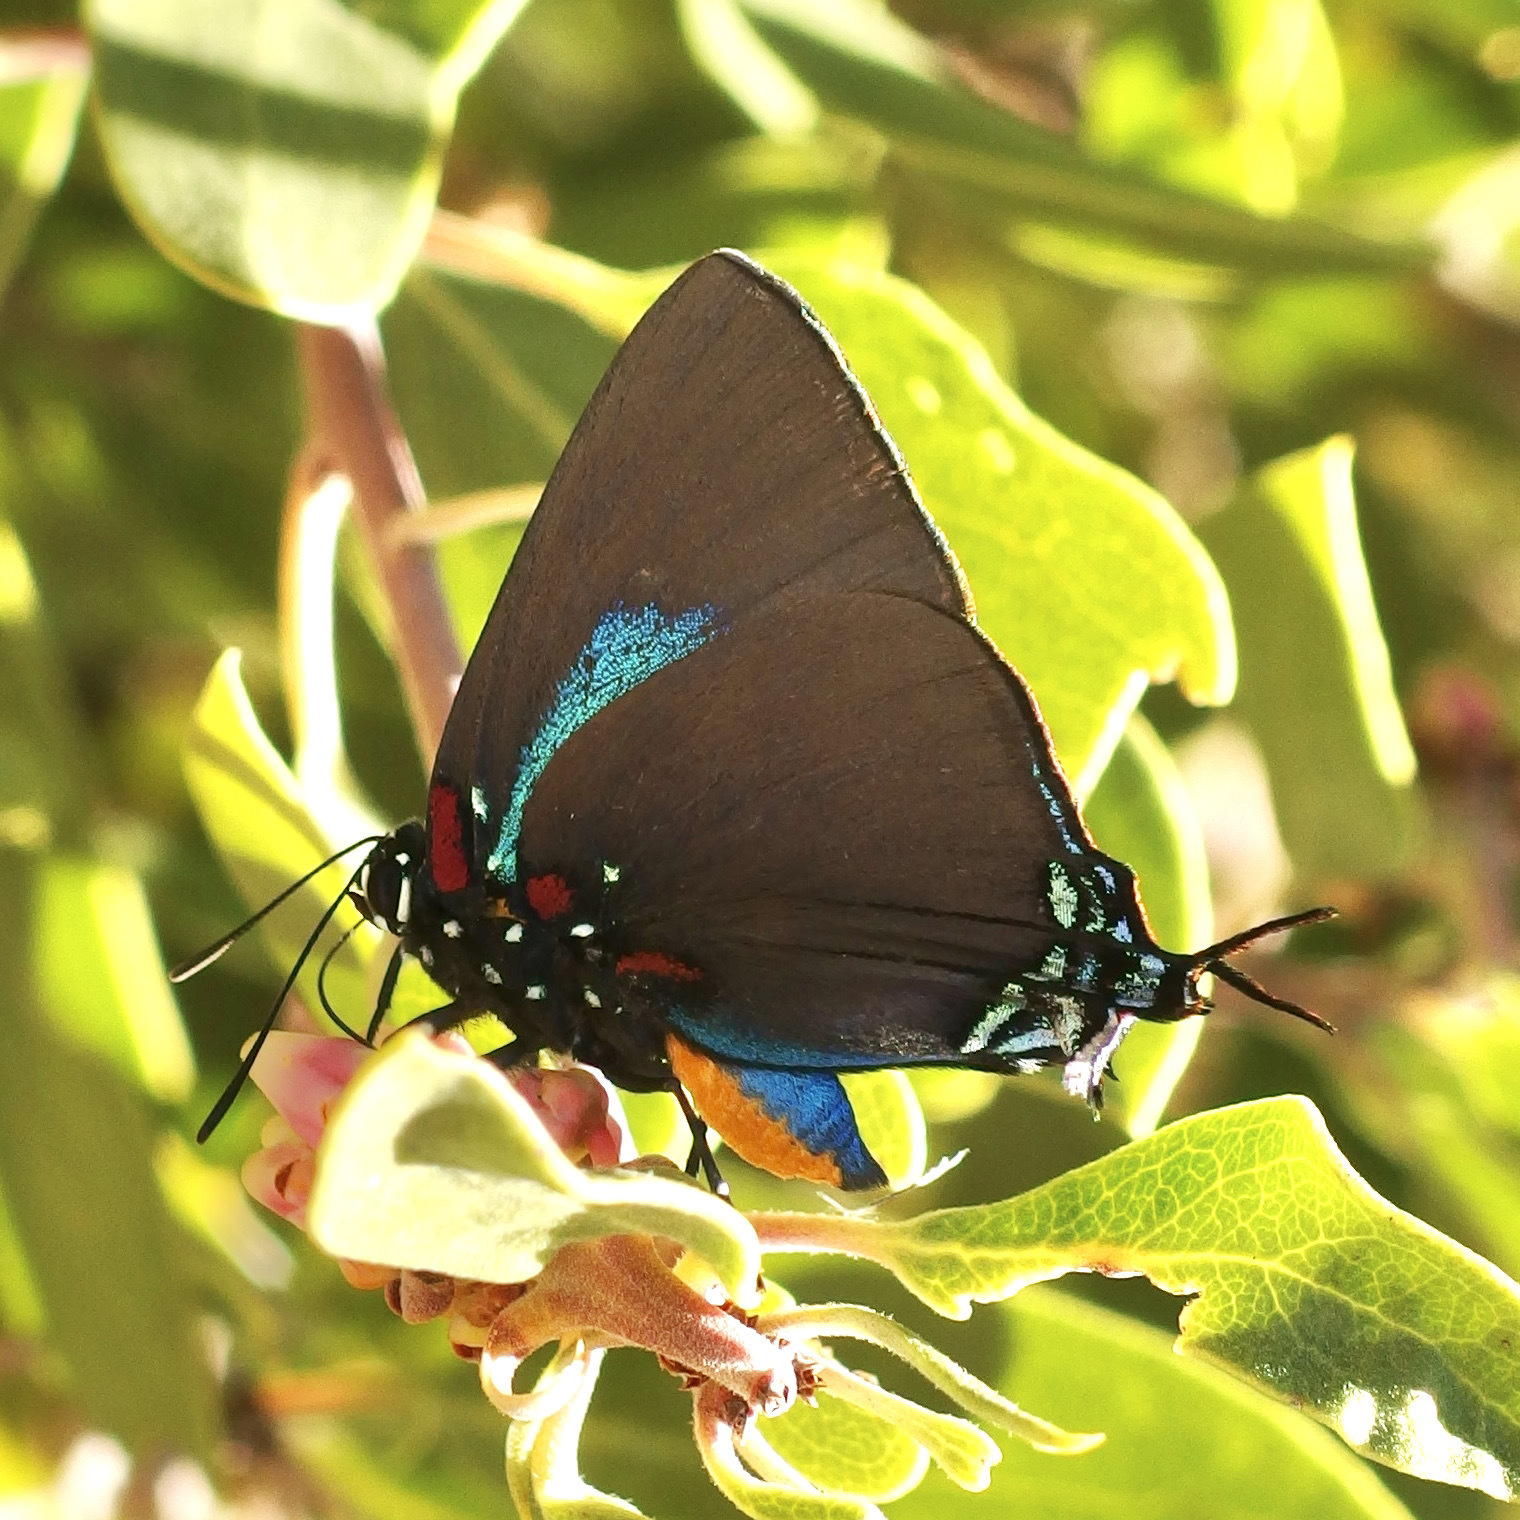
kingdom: Animalia
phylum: Arthropoda
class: Insecta
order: Lepidoptera
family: Lycaenidae
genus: Atlides
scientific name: Atlides halesus
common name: Great purple hairstreak
